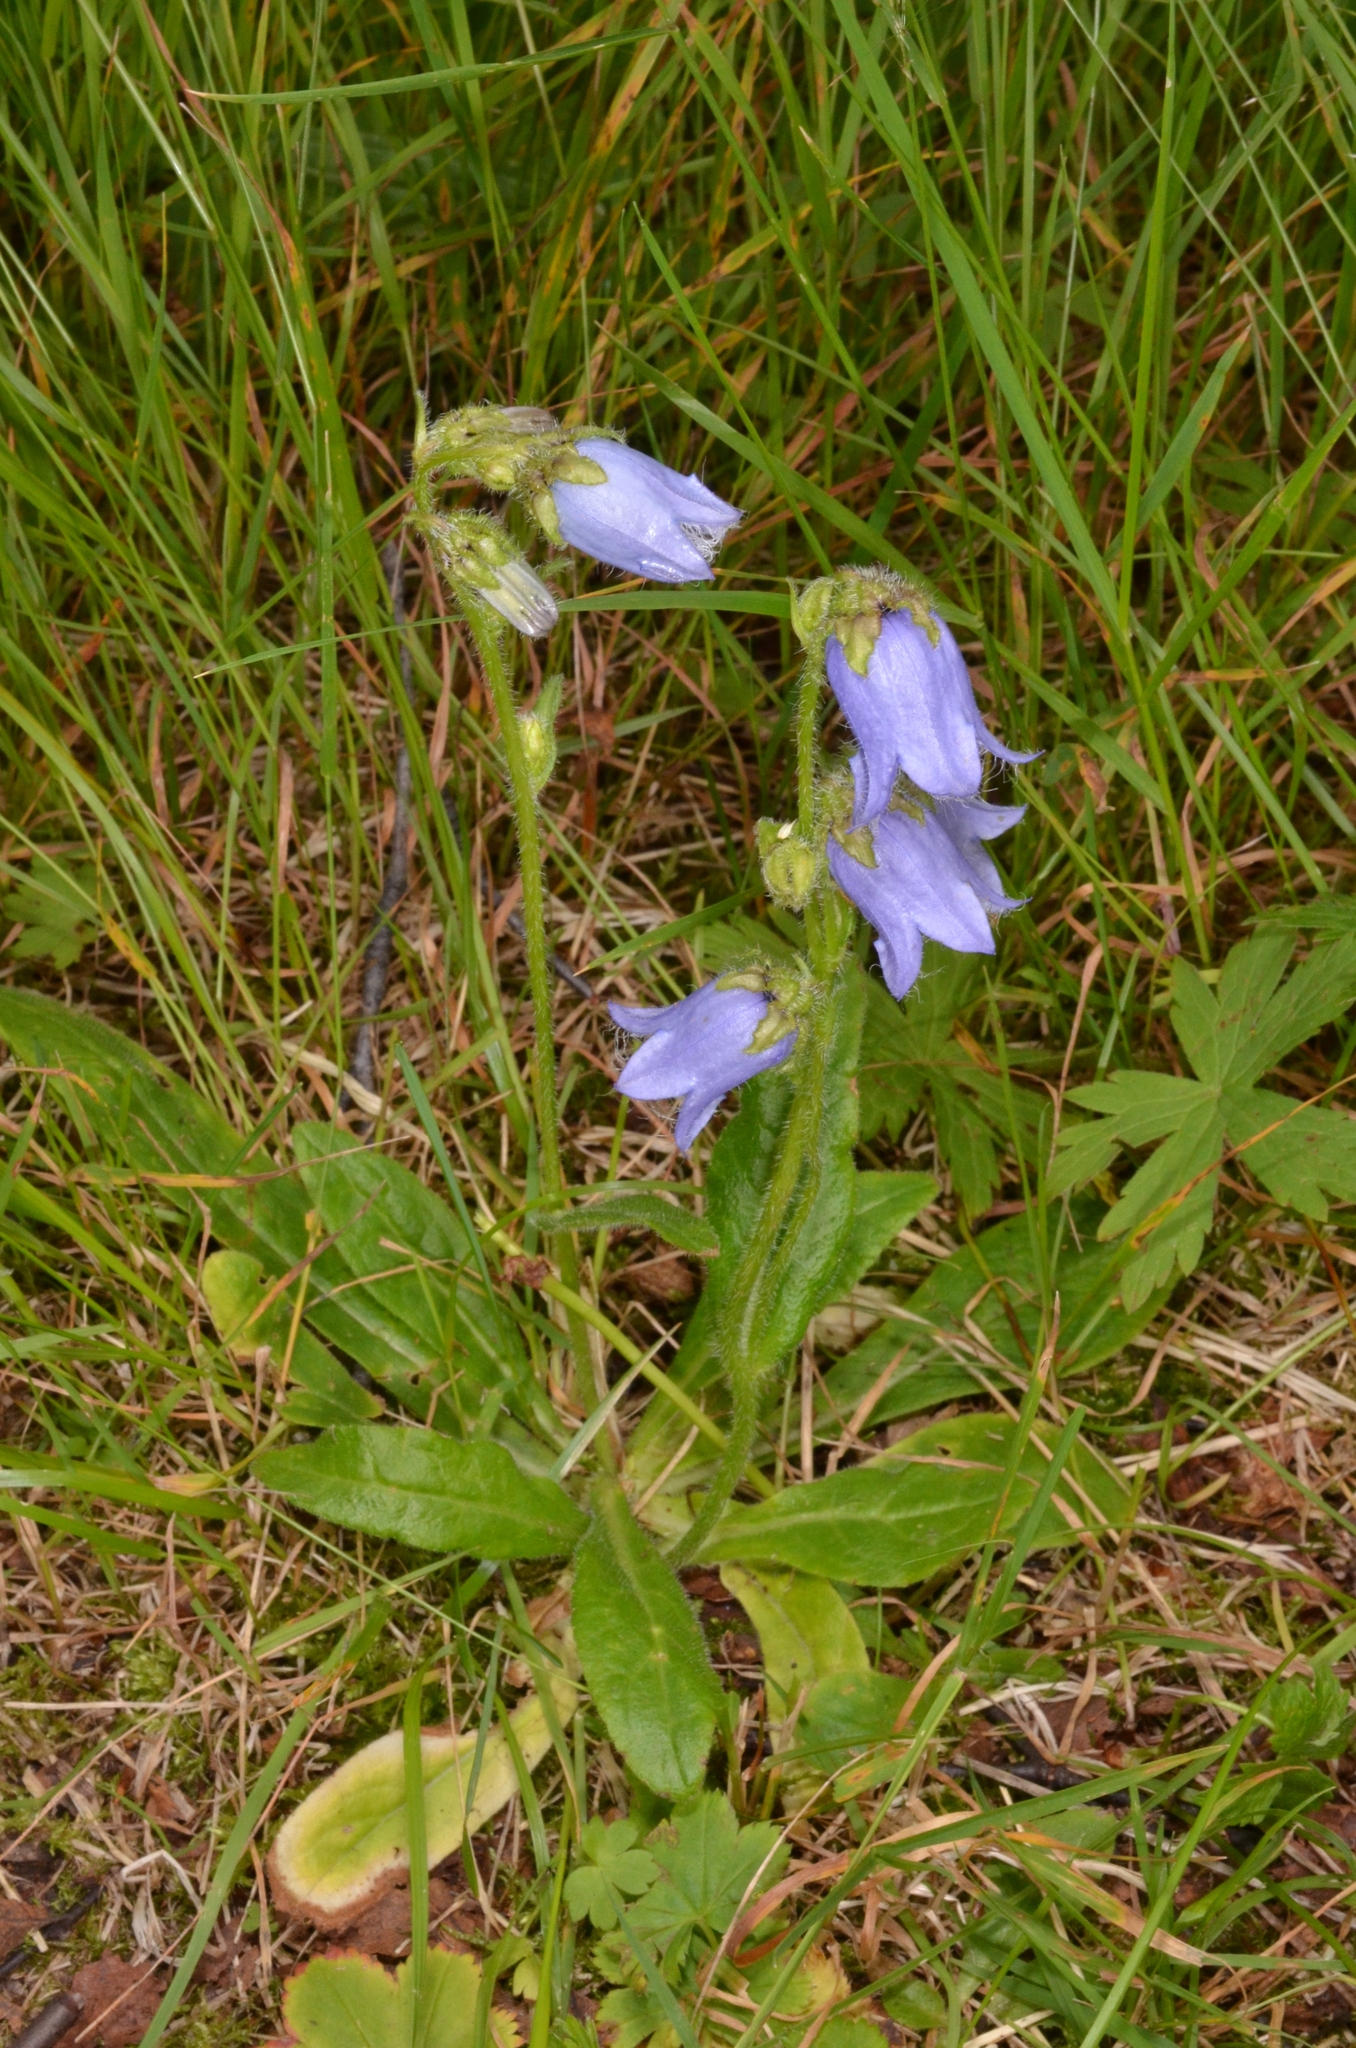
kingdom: Plantae
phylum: Tracheophyta
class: Magnoliopsida
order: Asterales
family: Campanulaceae
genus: Campanula
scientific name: Campanula barbata
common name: Bearded bellflower
